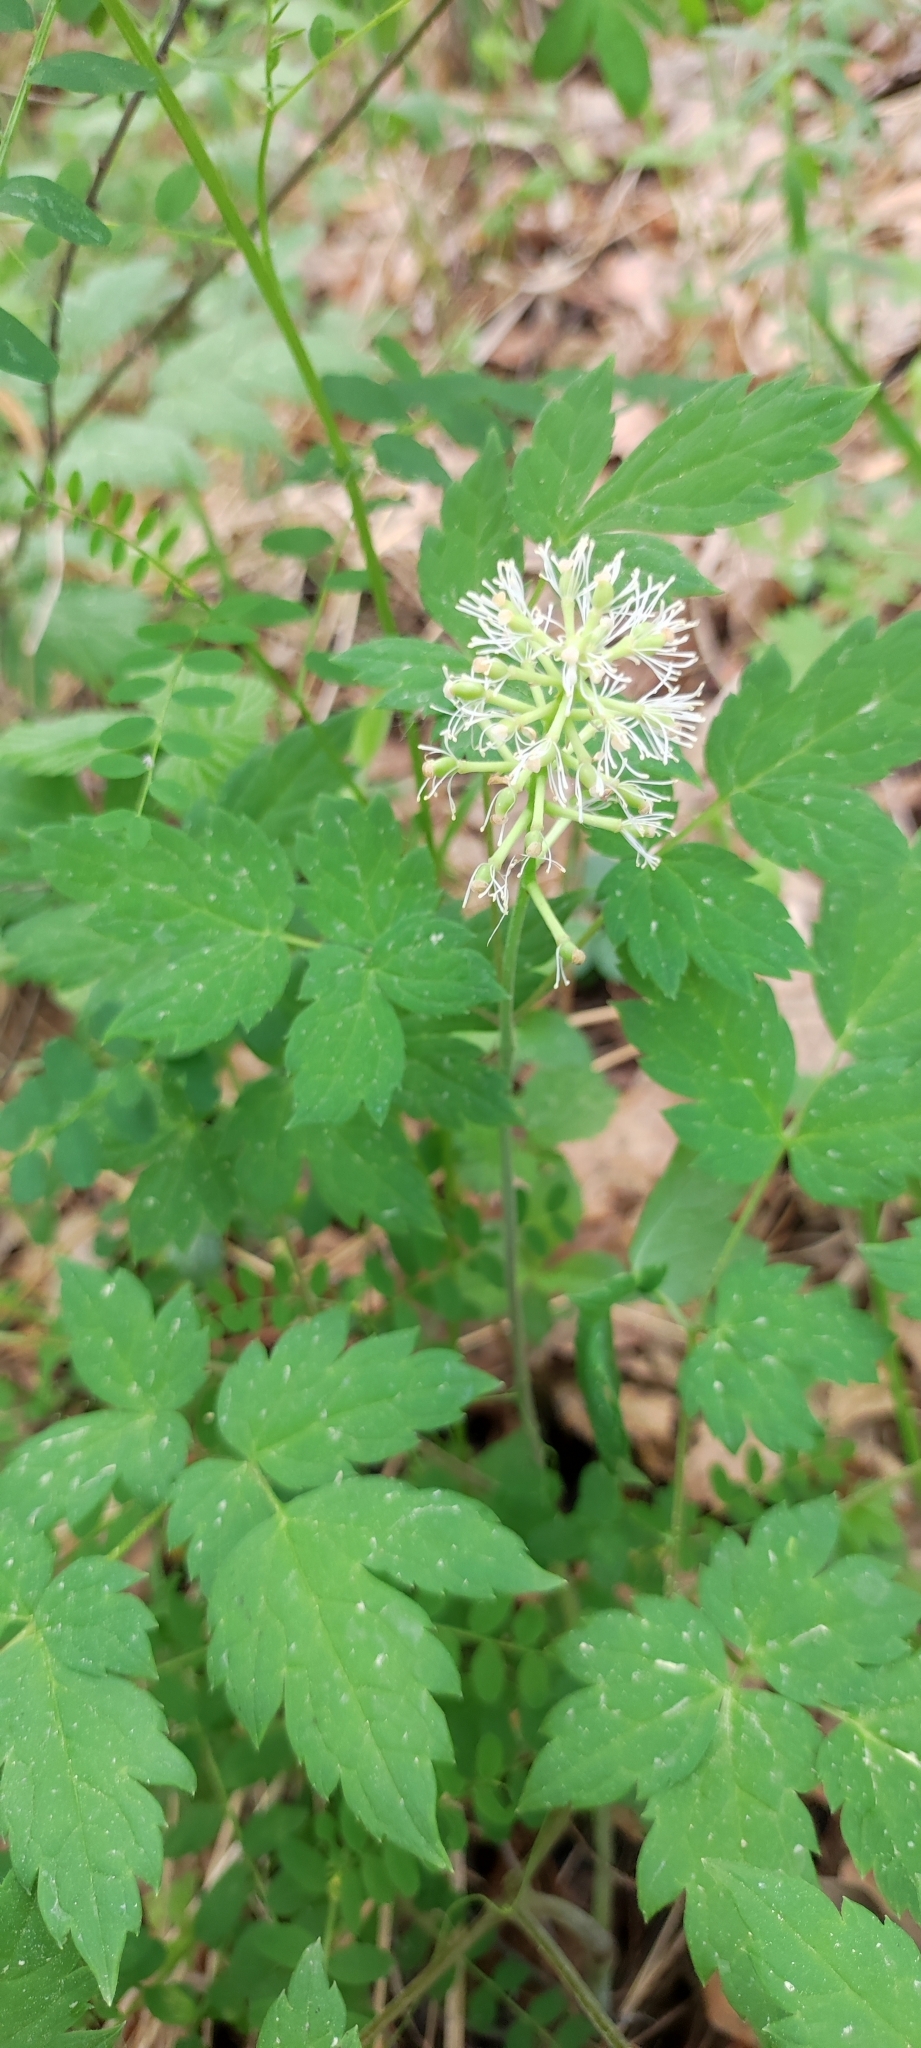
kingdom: Plantae
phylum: Tracheophyta
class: Magnoliopsida
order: Ranunculales
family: Ranunculaceae
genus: Actaea
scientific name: Actaea erythrocarpa
